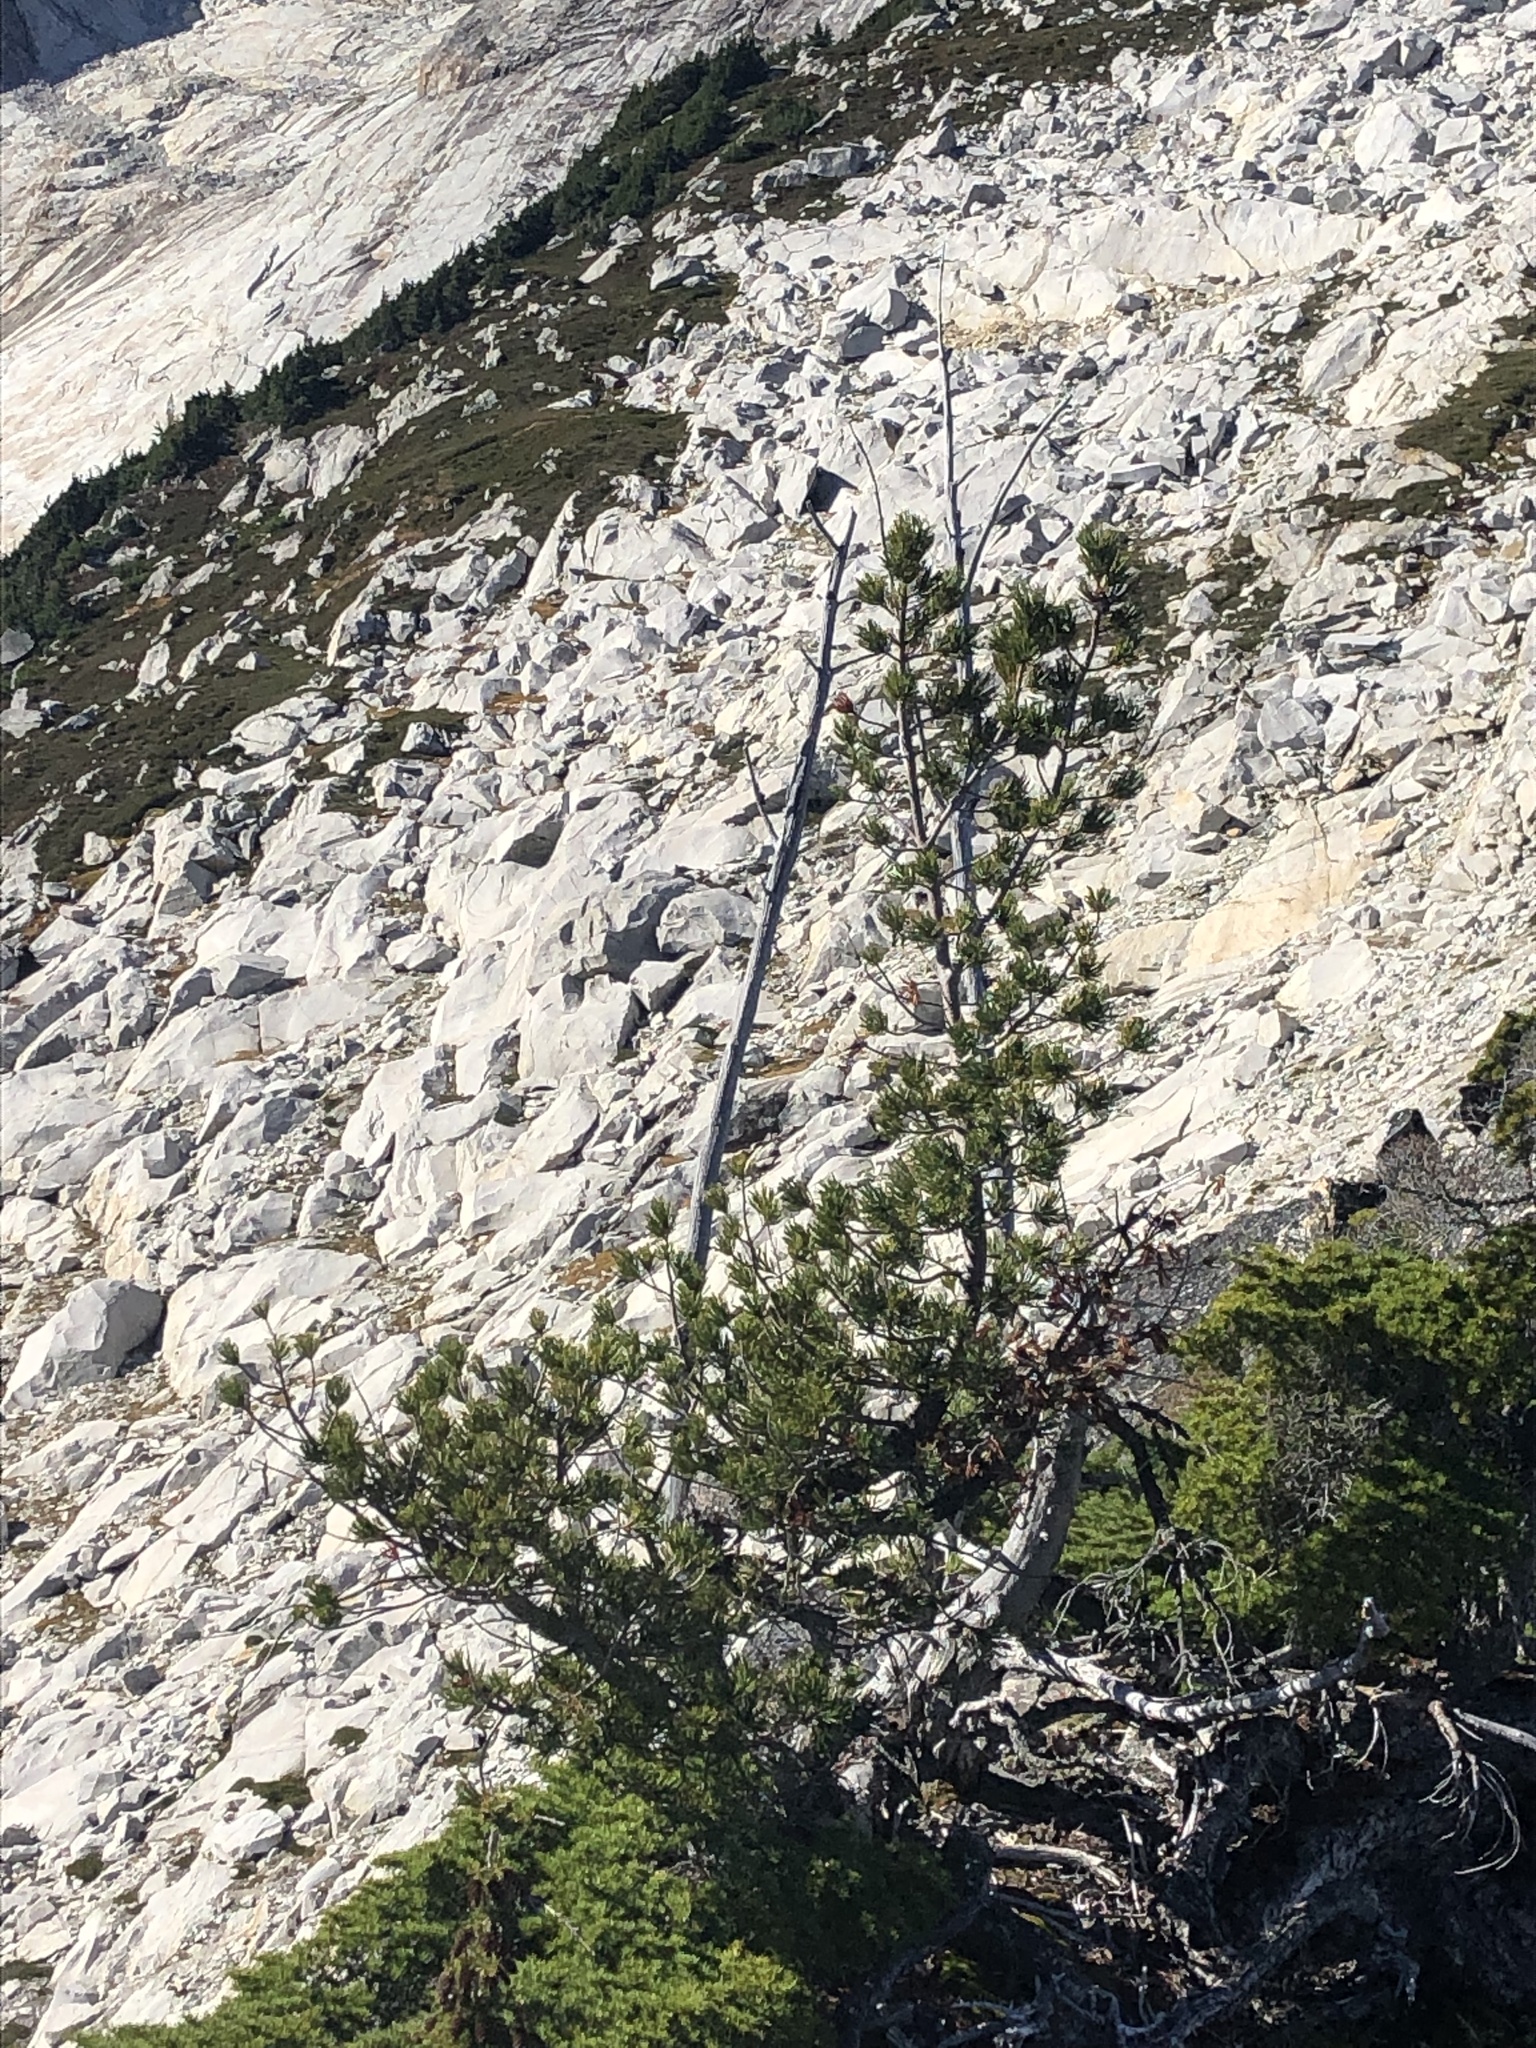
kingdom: Plantae
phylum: Tracheophyta
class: Pinopsida
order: Pinales
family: Pinaceae
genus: Pinus
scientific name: Pinus albicaulis
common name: Whitebark pine
